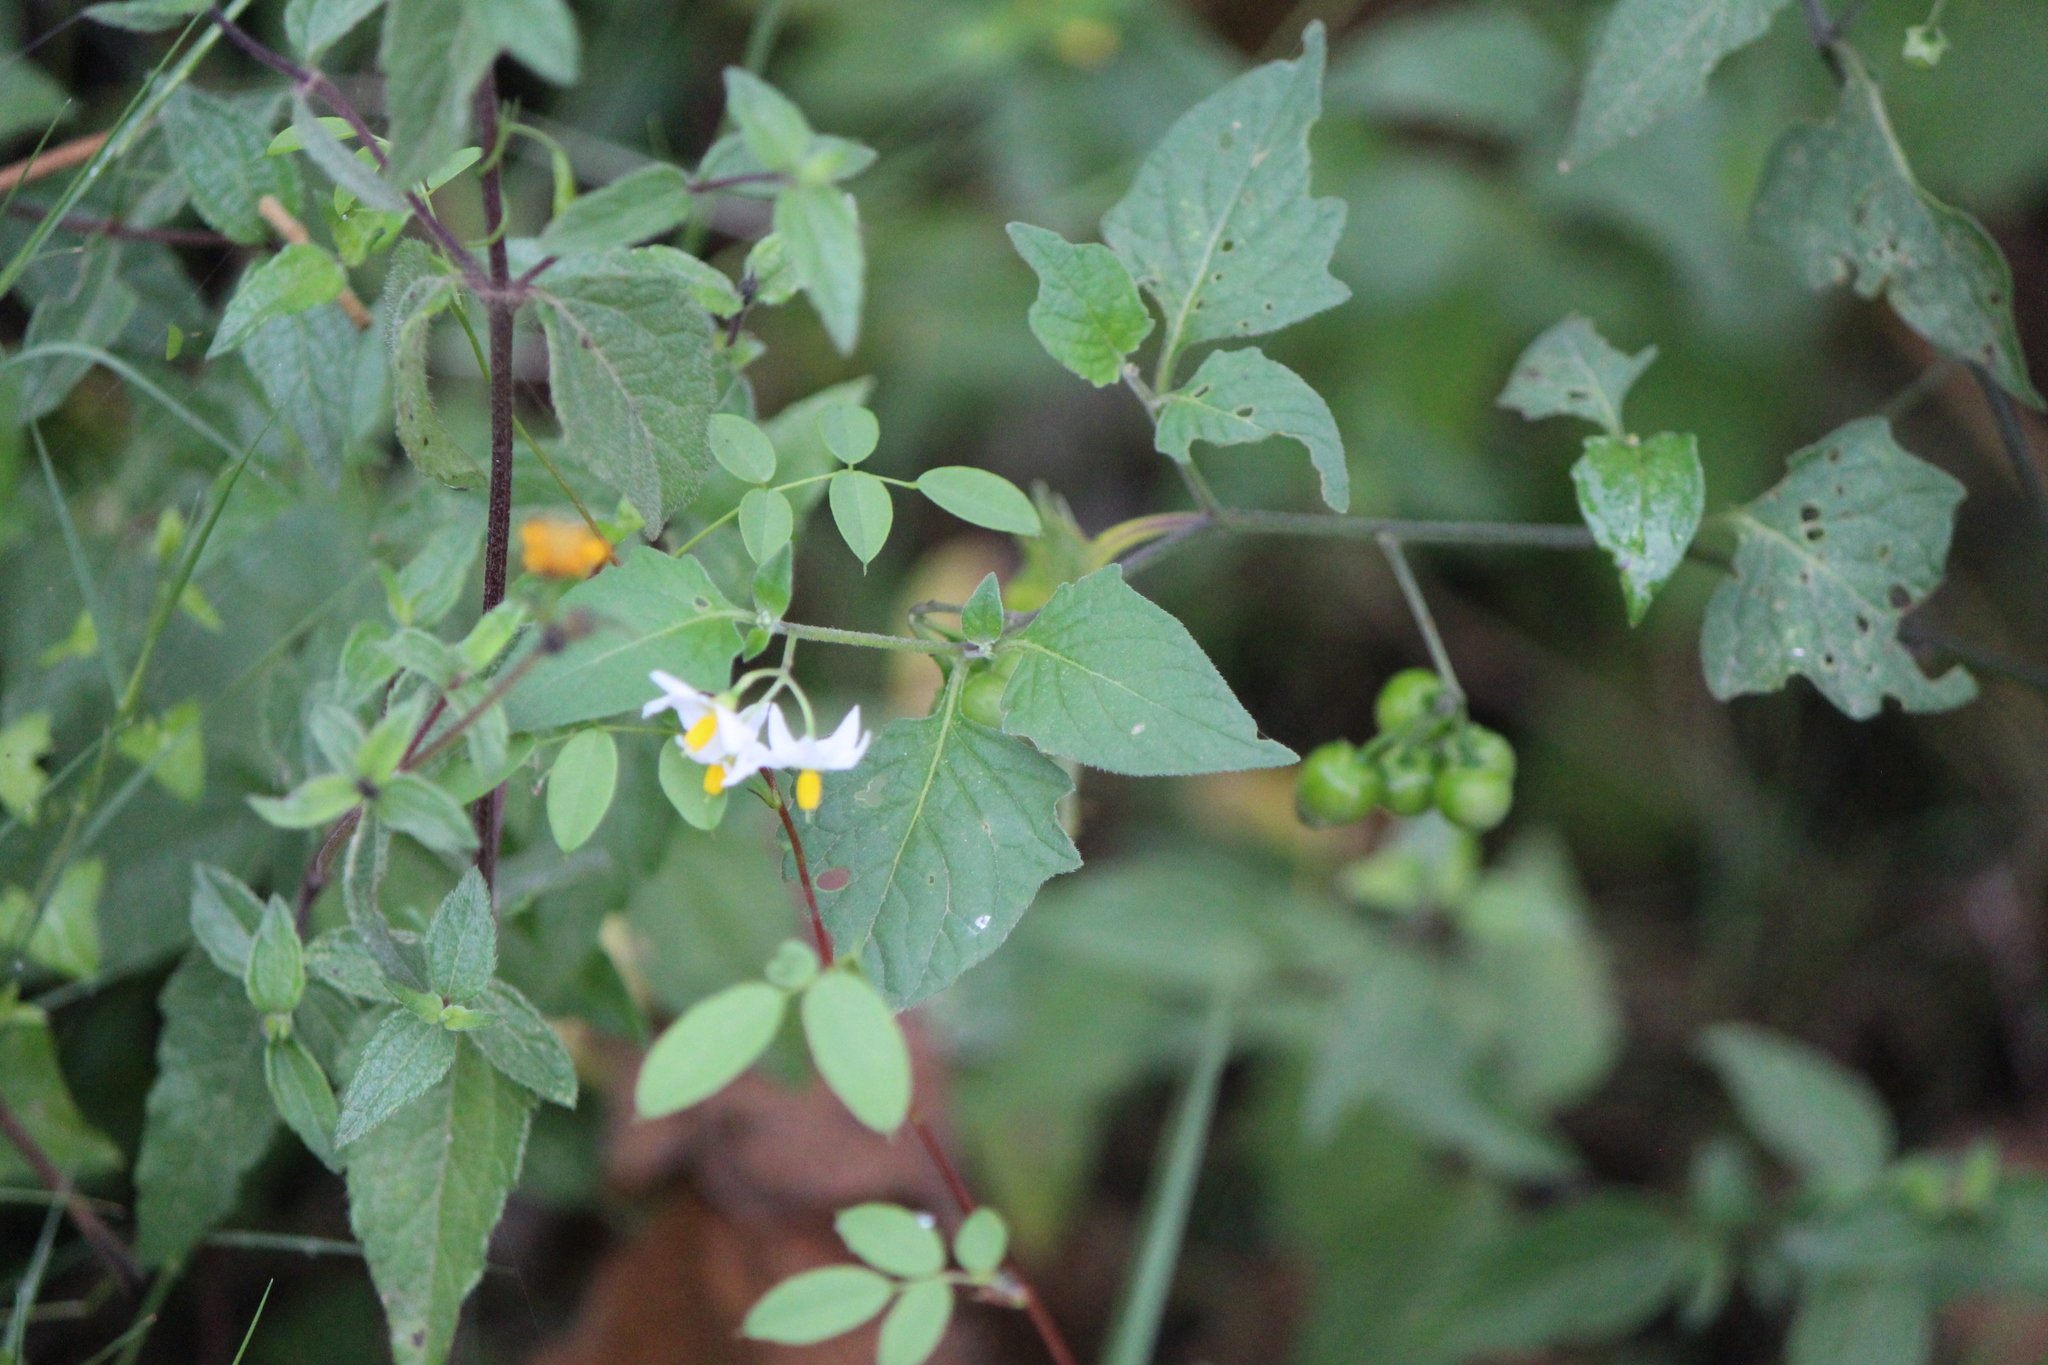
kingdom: Plantae
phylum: Tracheophyta
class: Magnoliopsida
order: Solanales
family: Solanaceae
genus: Solanum
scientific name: Solanum nigrescens
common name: Divine nightshade
